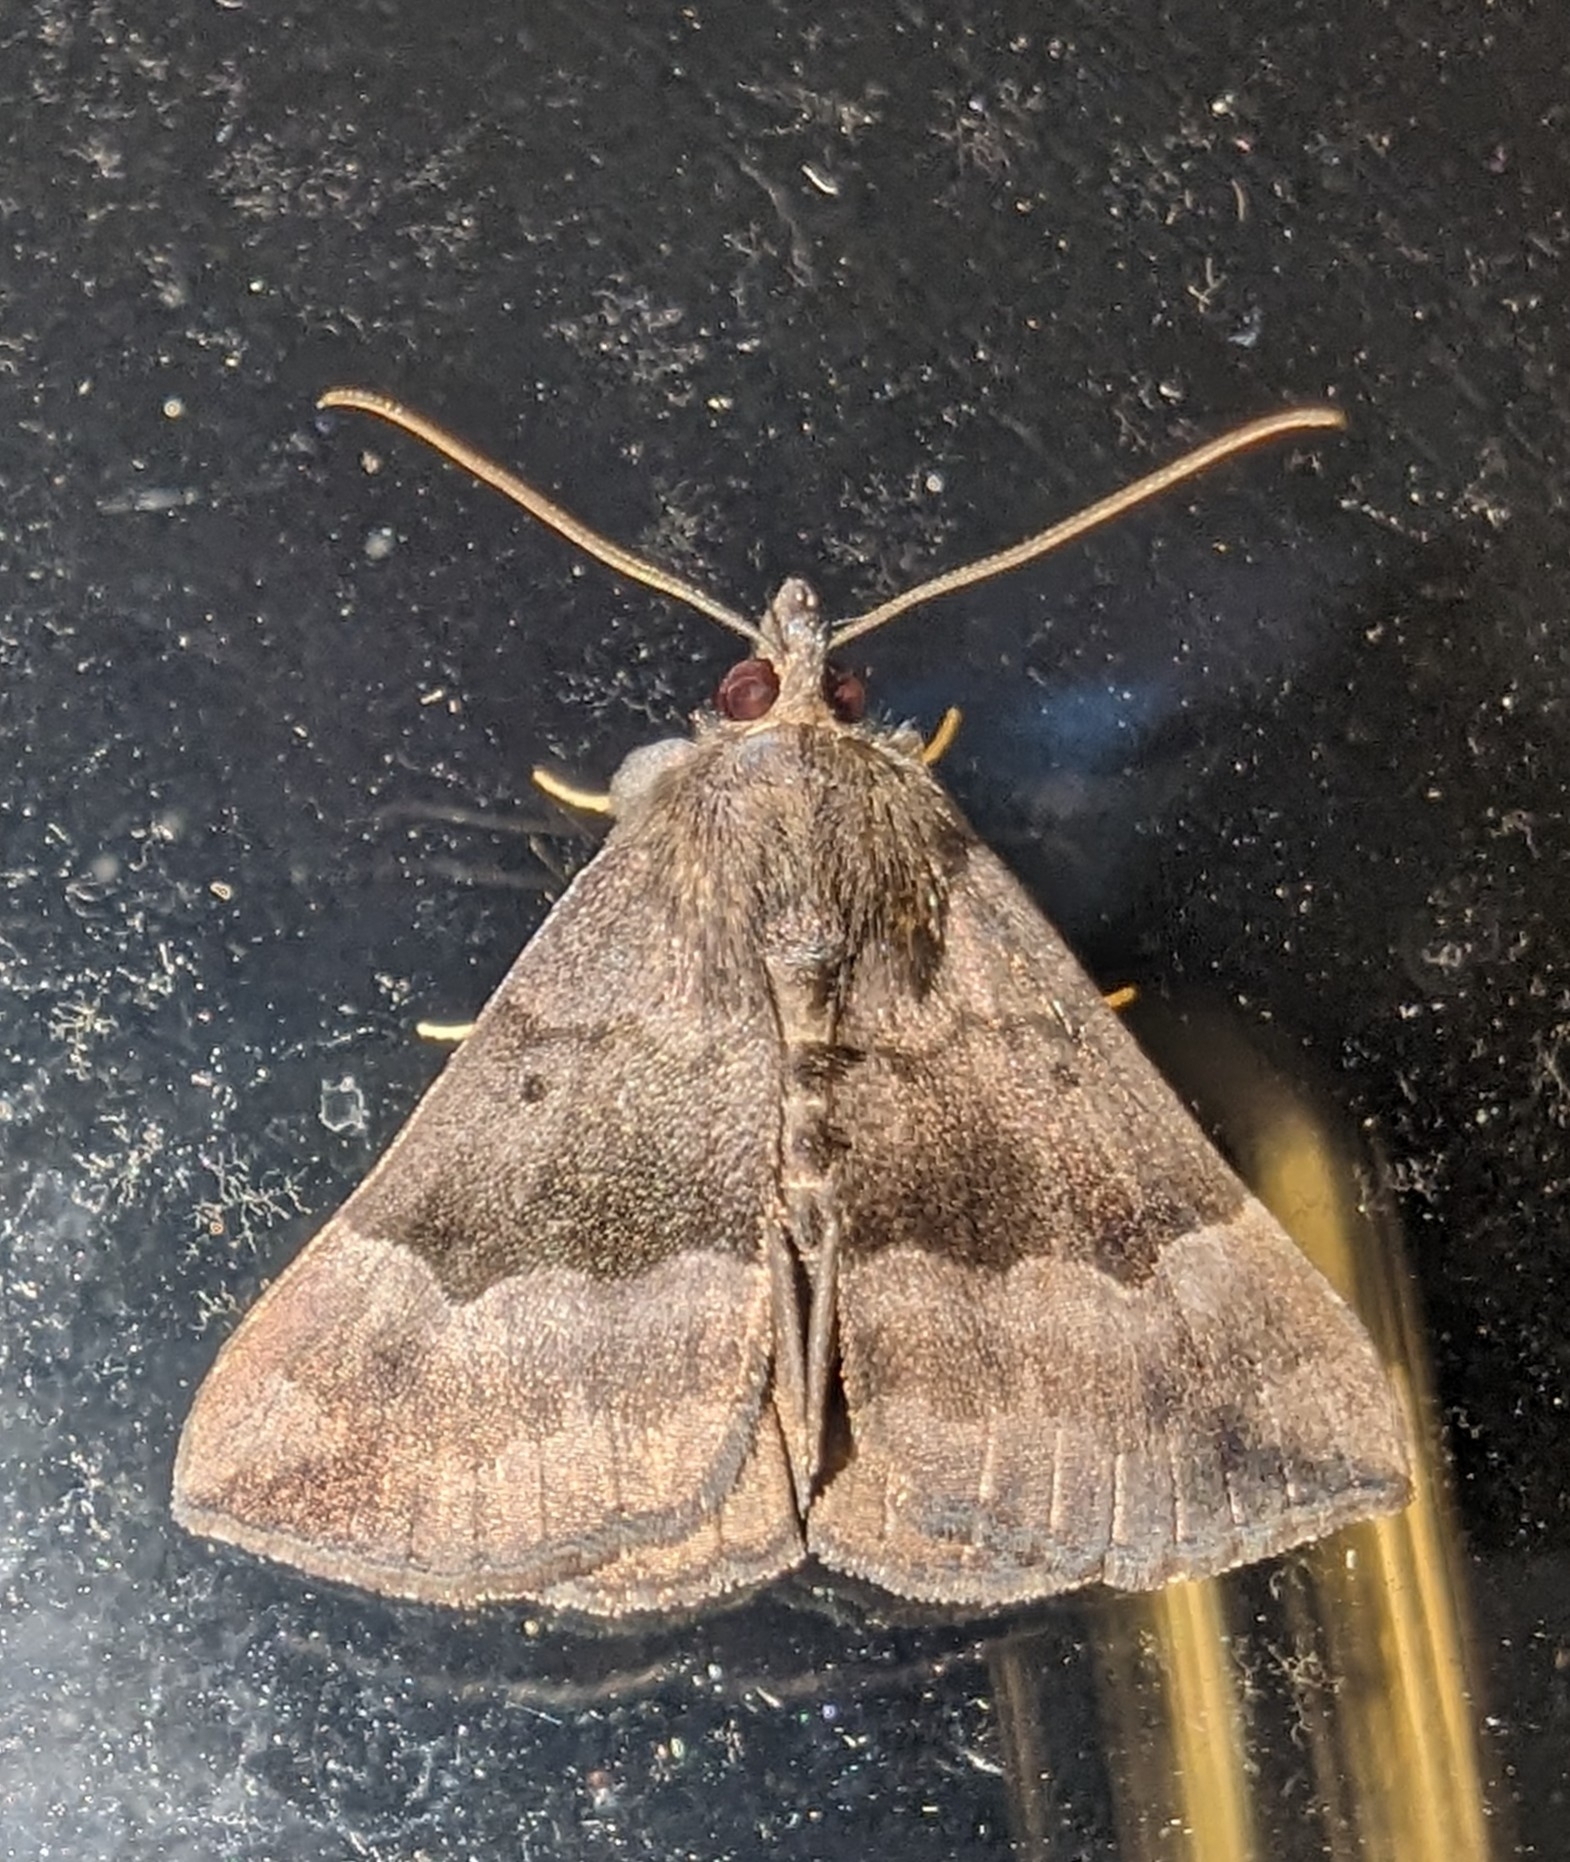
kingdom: Animalia
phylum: Arthropoda
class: Insecta
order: Lepidoptera
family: Erebidae
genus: Hypena
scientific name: Hypena madefactalis
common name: Gray-edged snout
